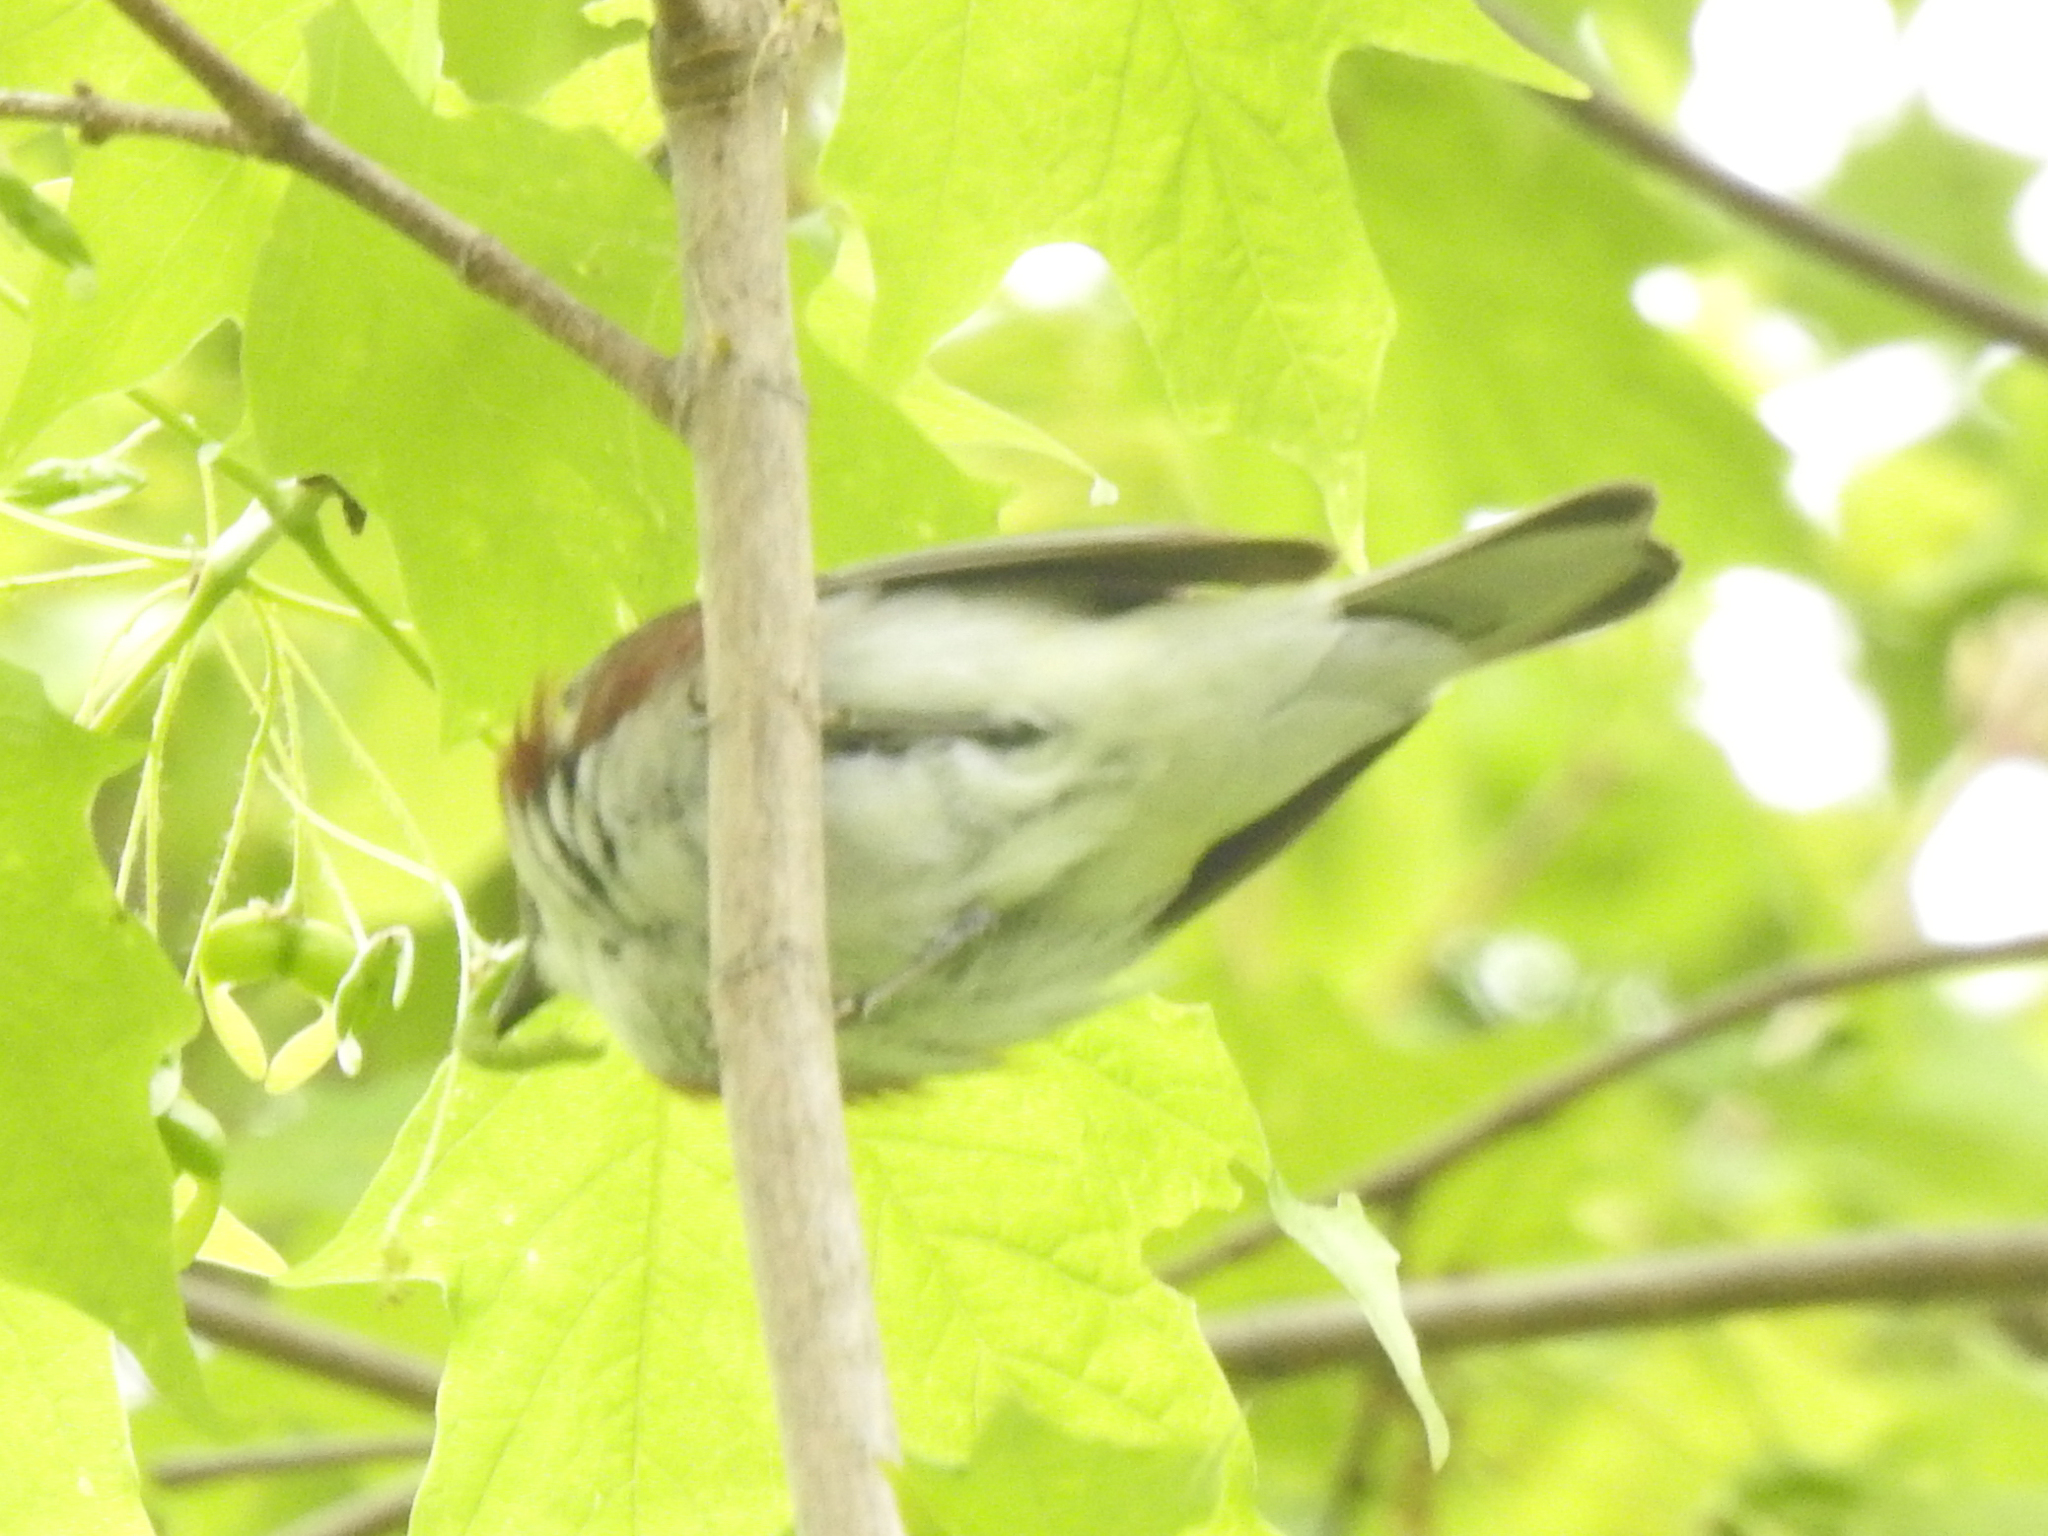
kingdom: Animalia
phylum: Chordata
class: Aves
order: Passeriformes
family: Parulidae
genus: Setophaga
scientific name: Setophaga pensylvanica
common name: Chestnut-sided warbler
